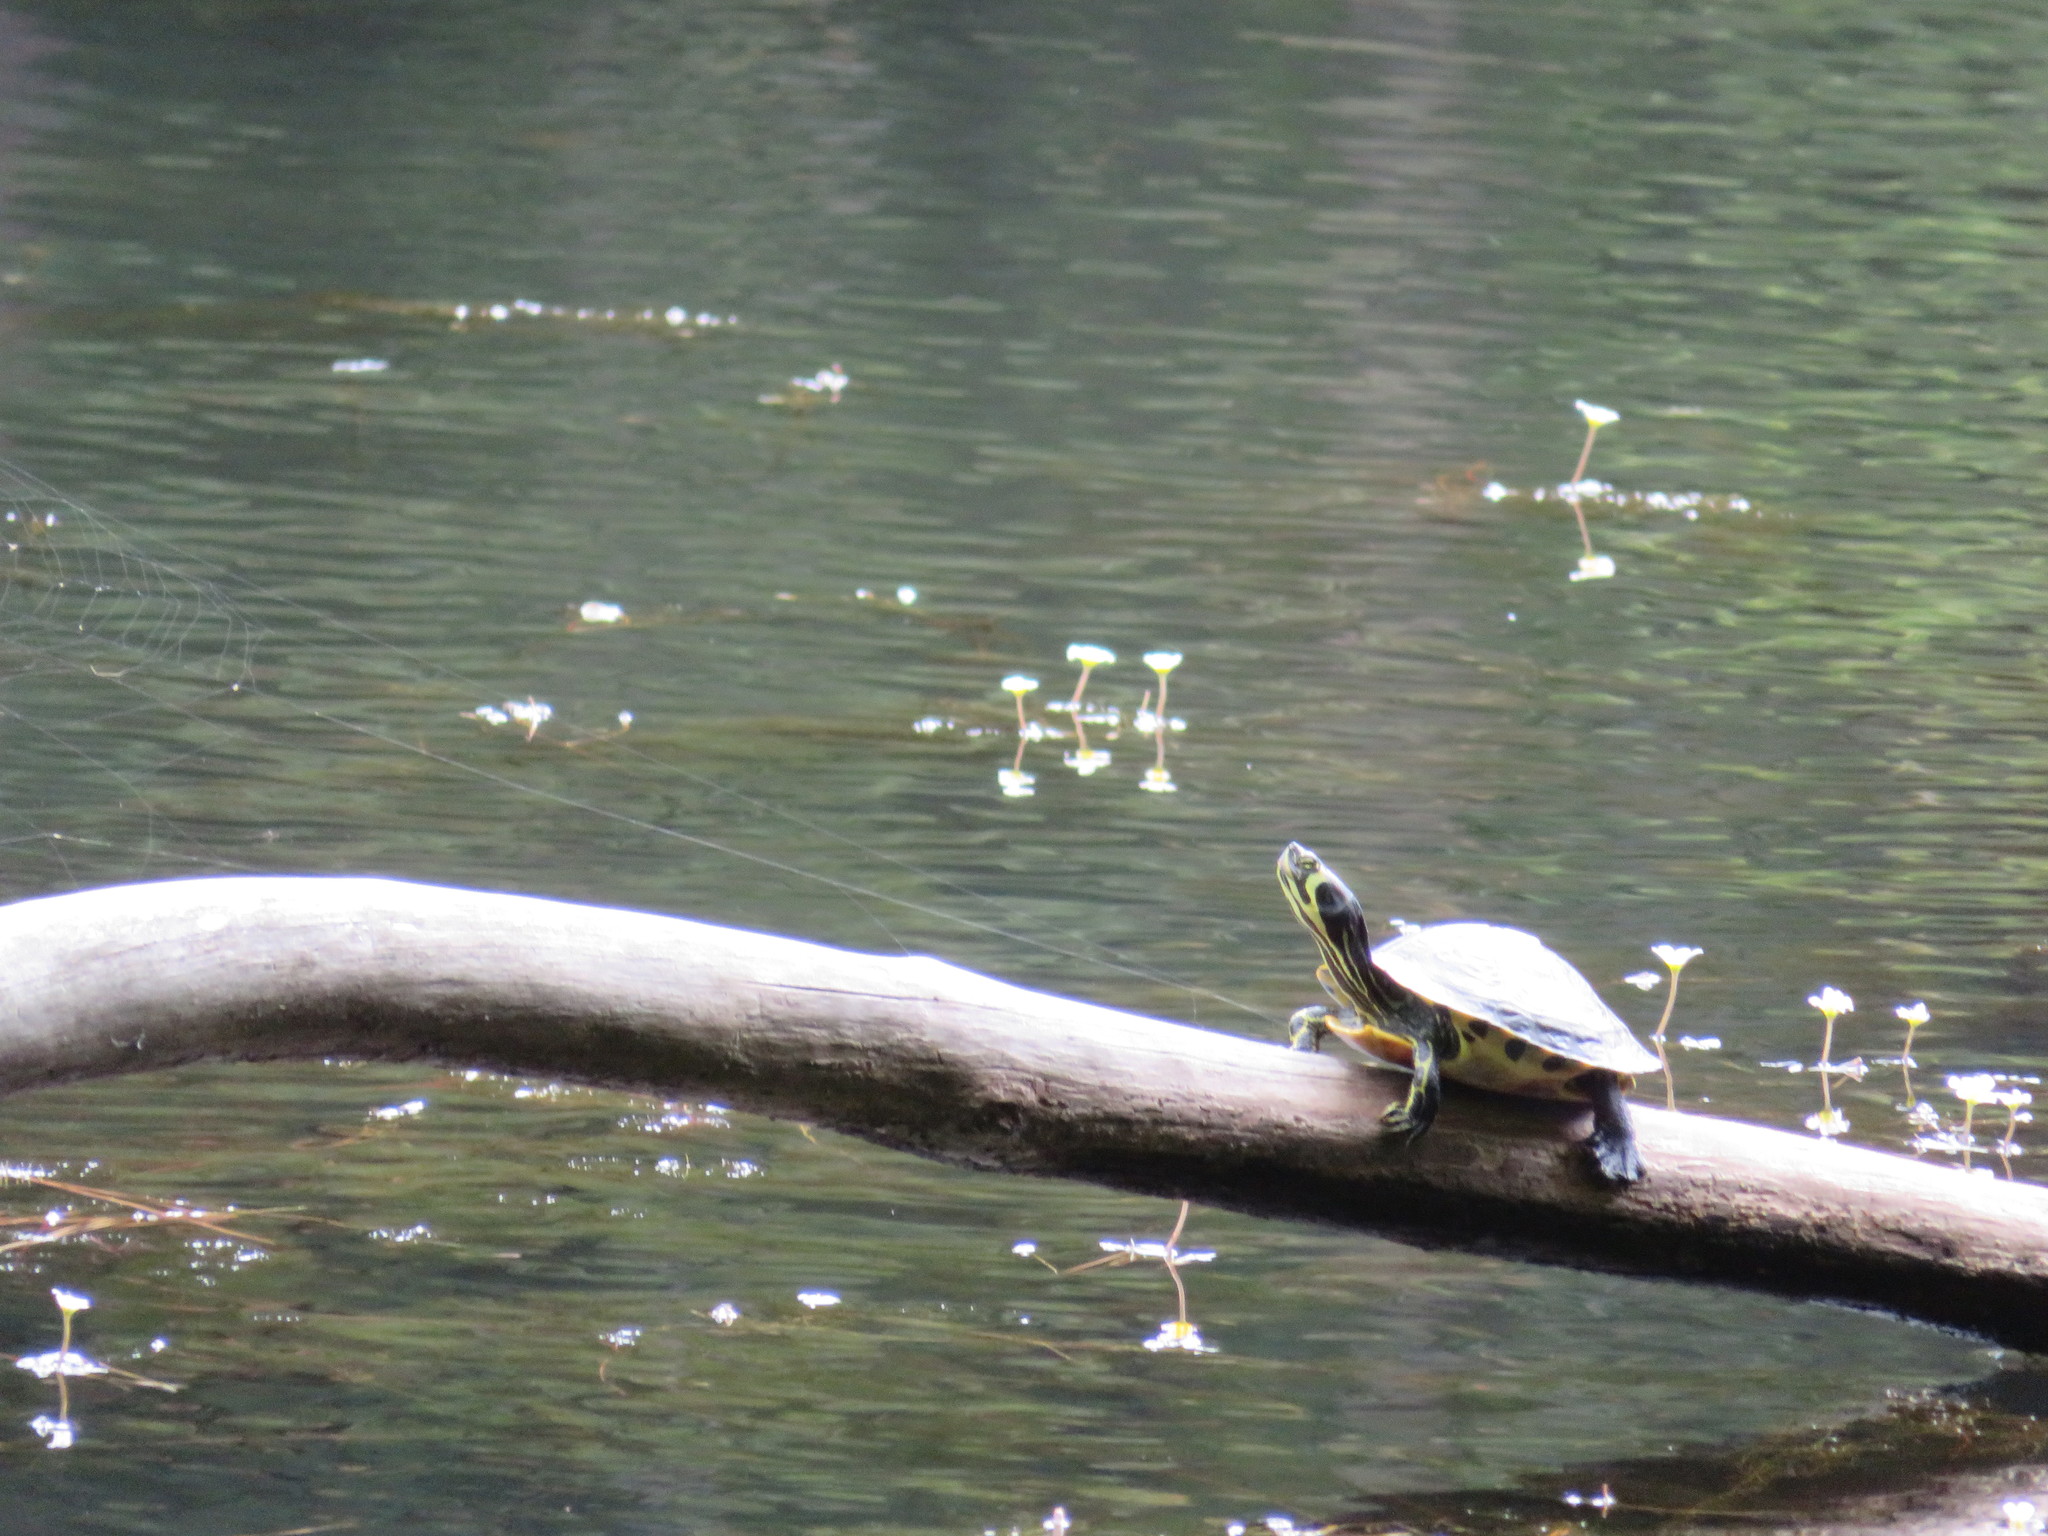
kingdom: Animalia
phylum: Chordata
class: Testudines
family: Emydidae
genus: Trachemys
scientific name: Trachemys scripta
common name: Slider
